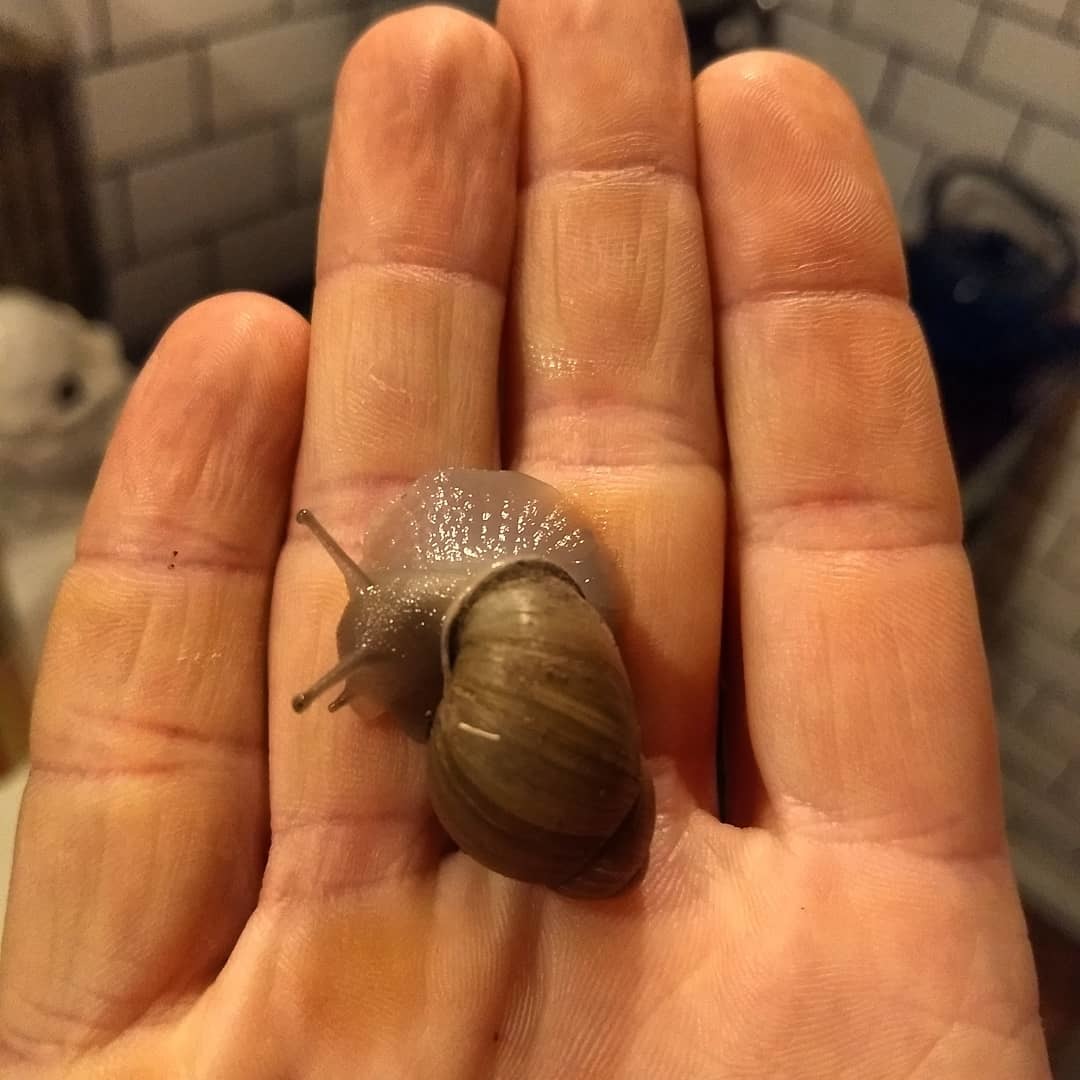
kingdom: Animalia
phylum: Mollusca
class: Gastropoda
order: Stylommatophora
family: Strophocheilidae
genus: Austroborus
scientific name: Austroborus dorbignyi
